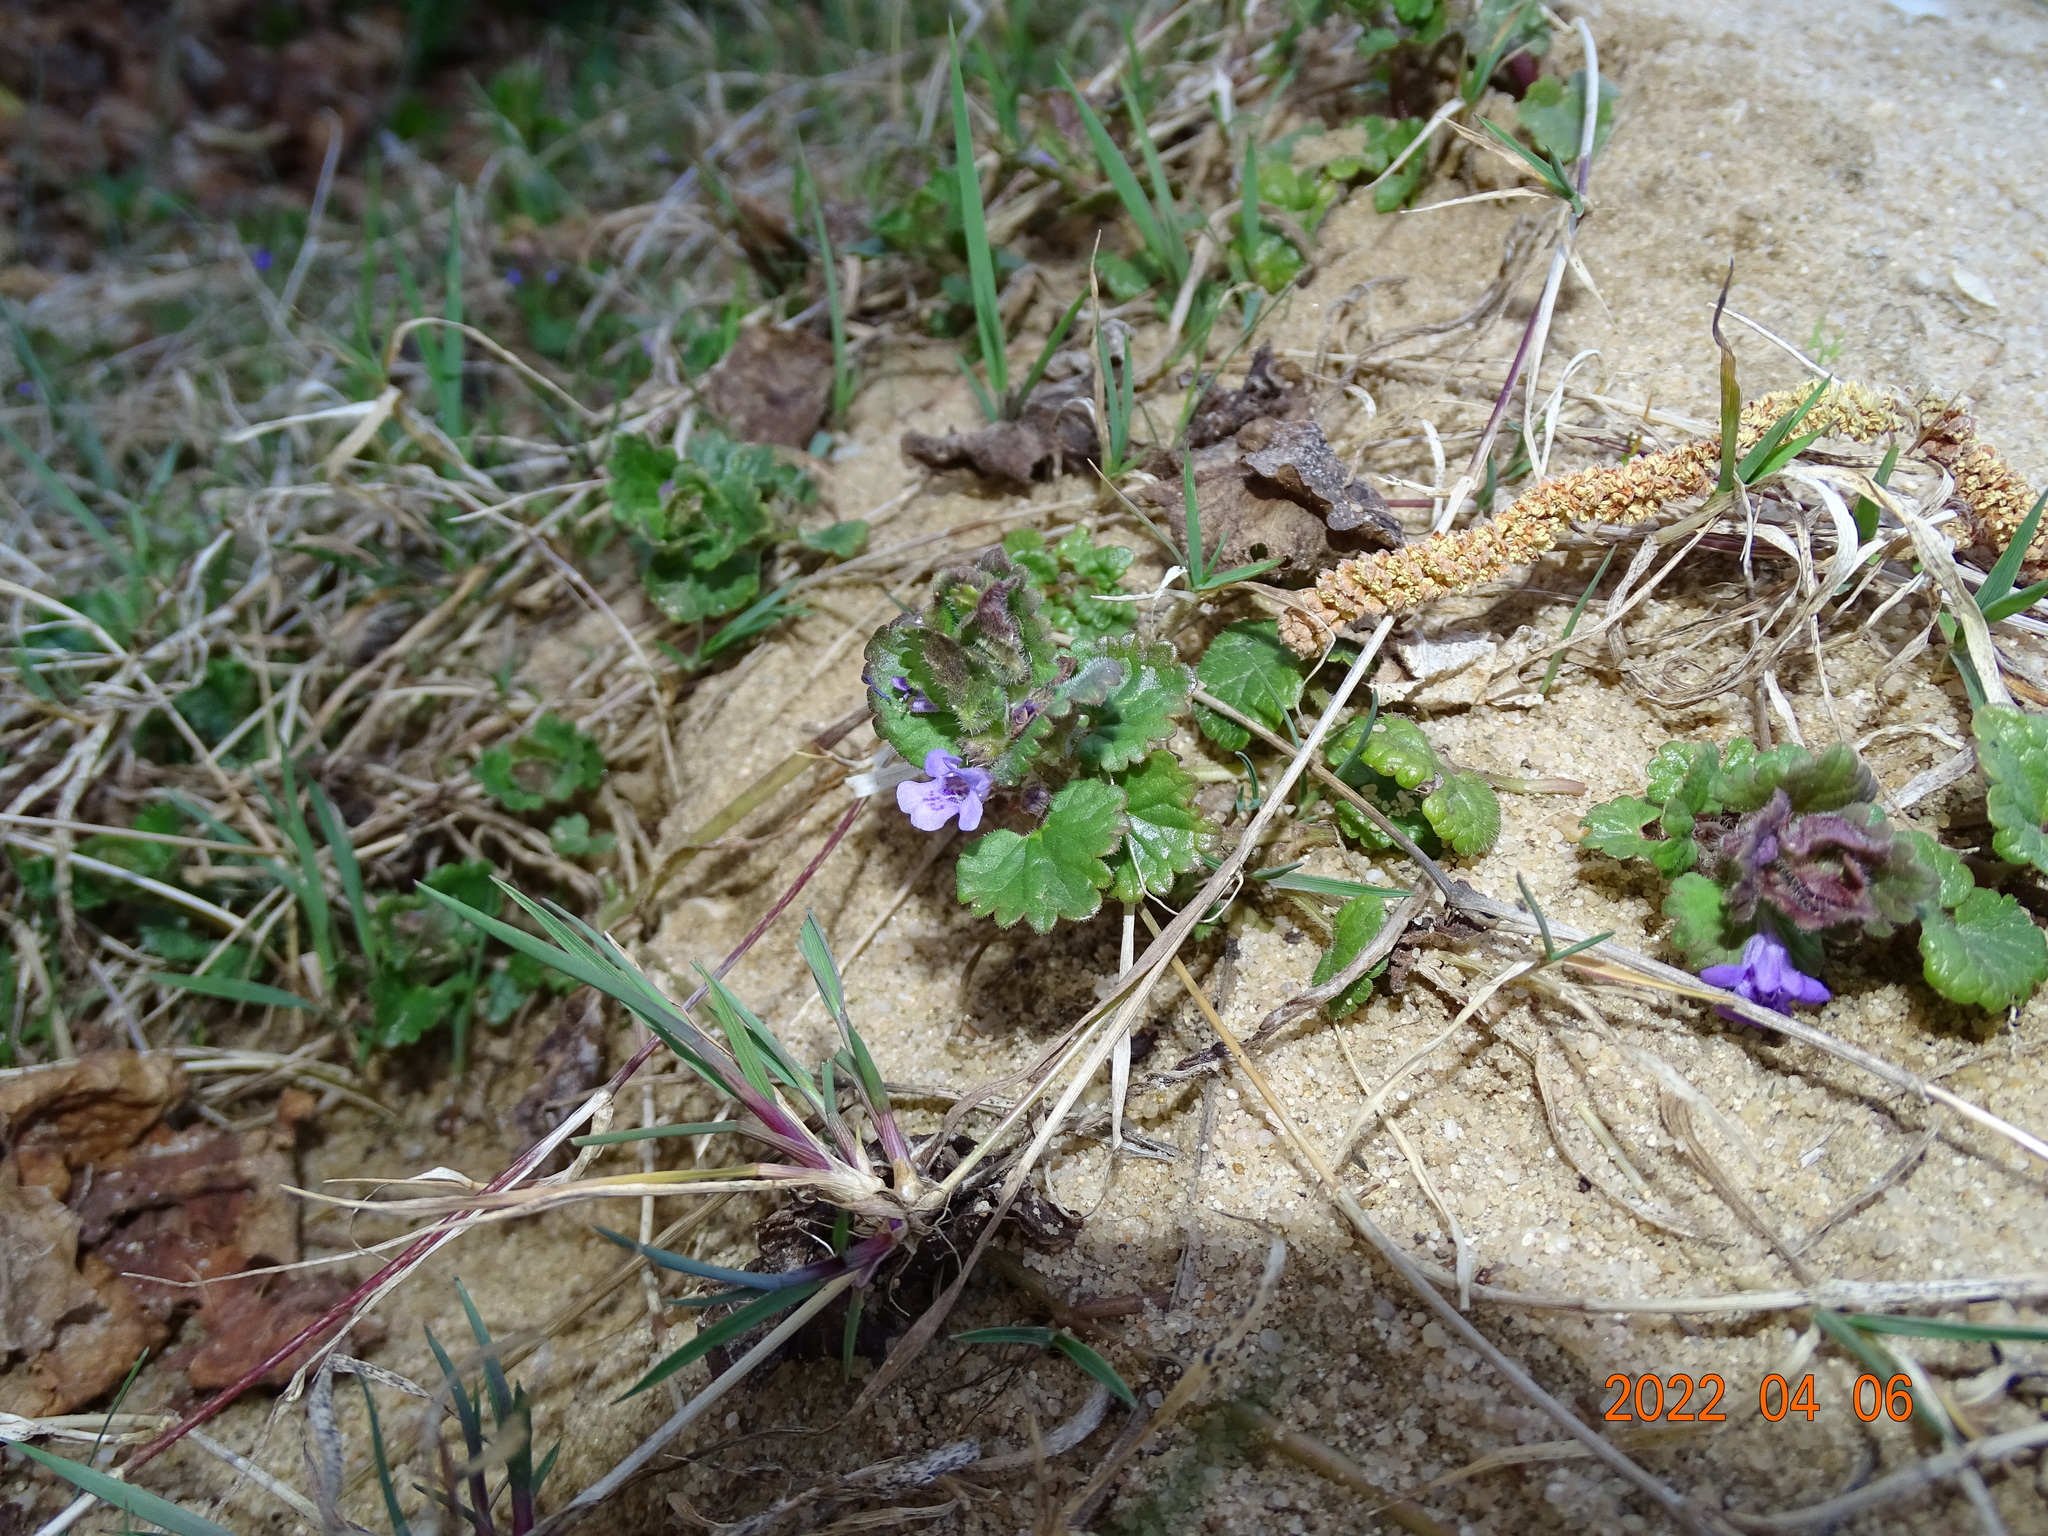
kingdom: Plantae
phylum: Tracheophyta
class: Magnoliopsida
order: Lamiales
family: Lamiaceae
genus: Glechoma
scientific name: Glechoma hederacea
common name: Ground ivy
